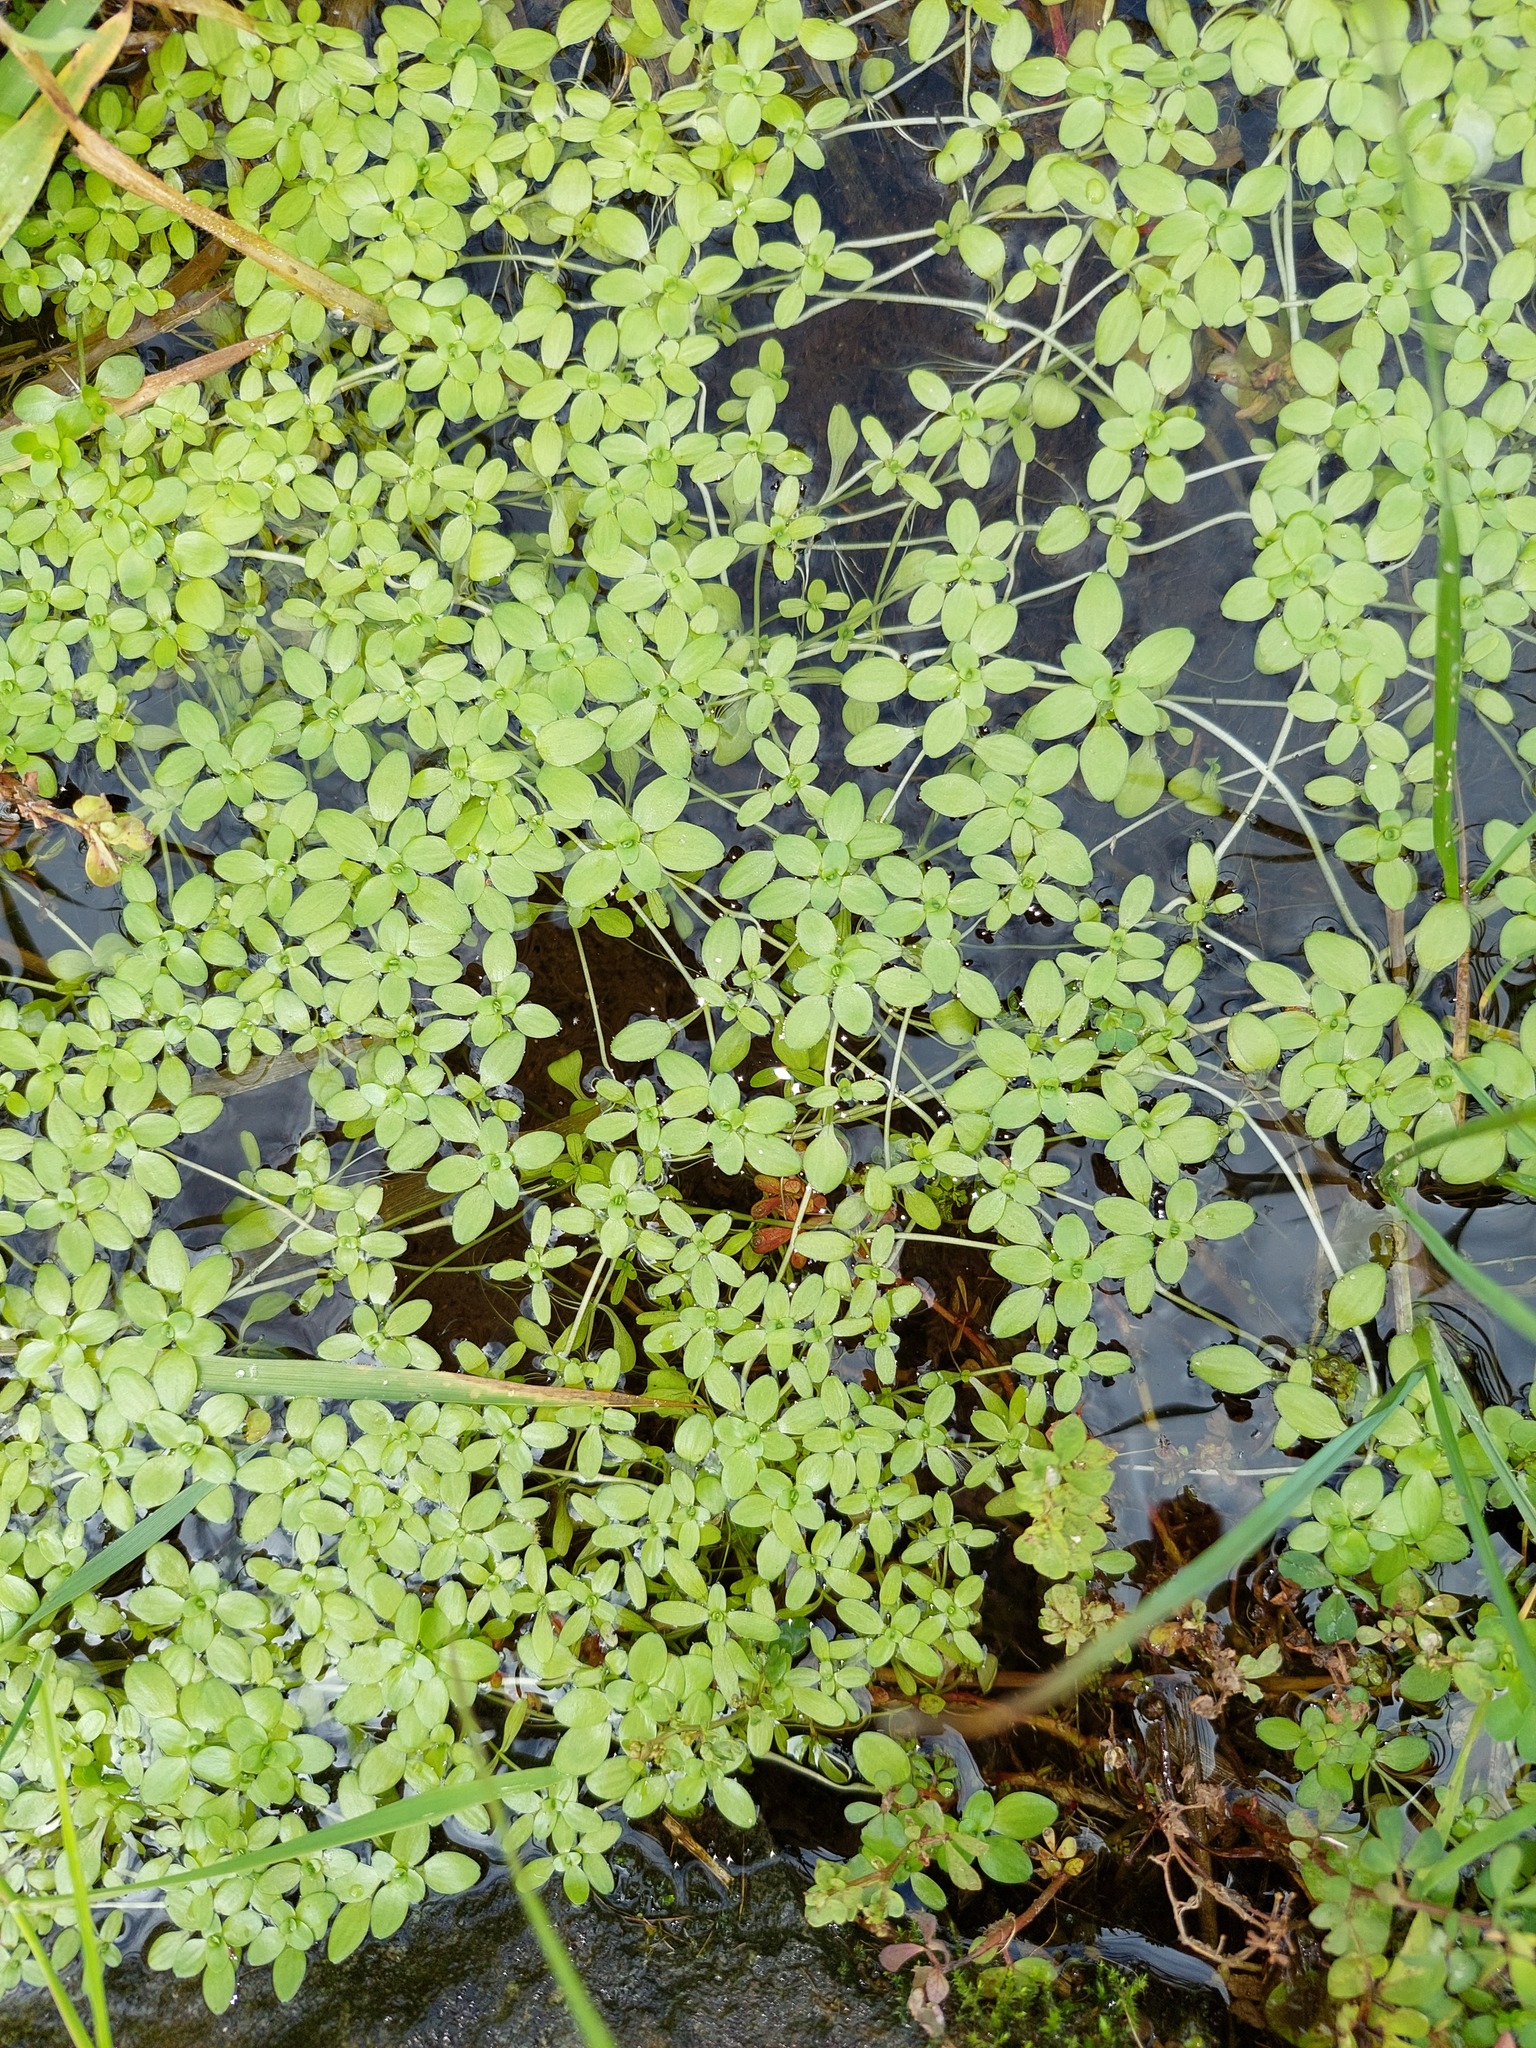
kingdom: Plantae
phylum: Tracheophyta
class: Magnoliopsida
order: Lamiales
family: Plantaginaceae
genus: Callitriche
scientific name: Callitriche stagnalis
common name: Common water-starwort
